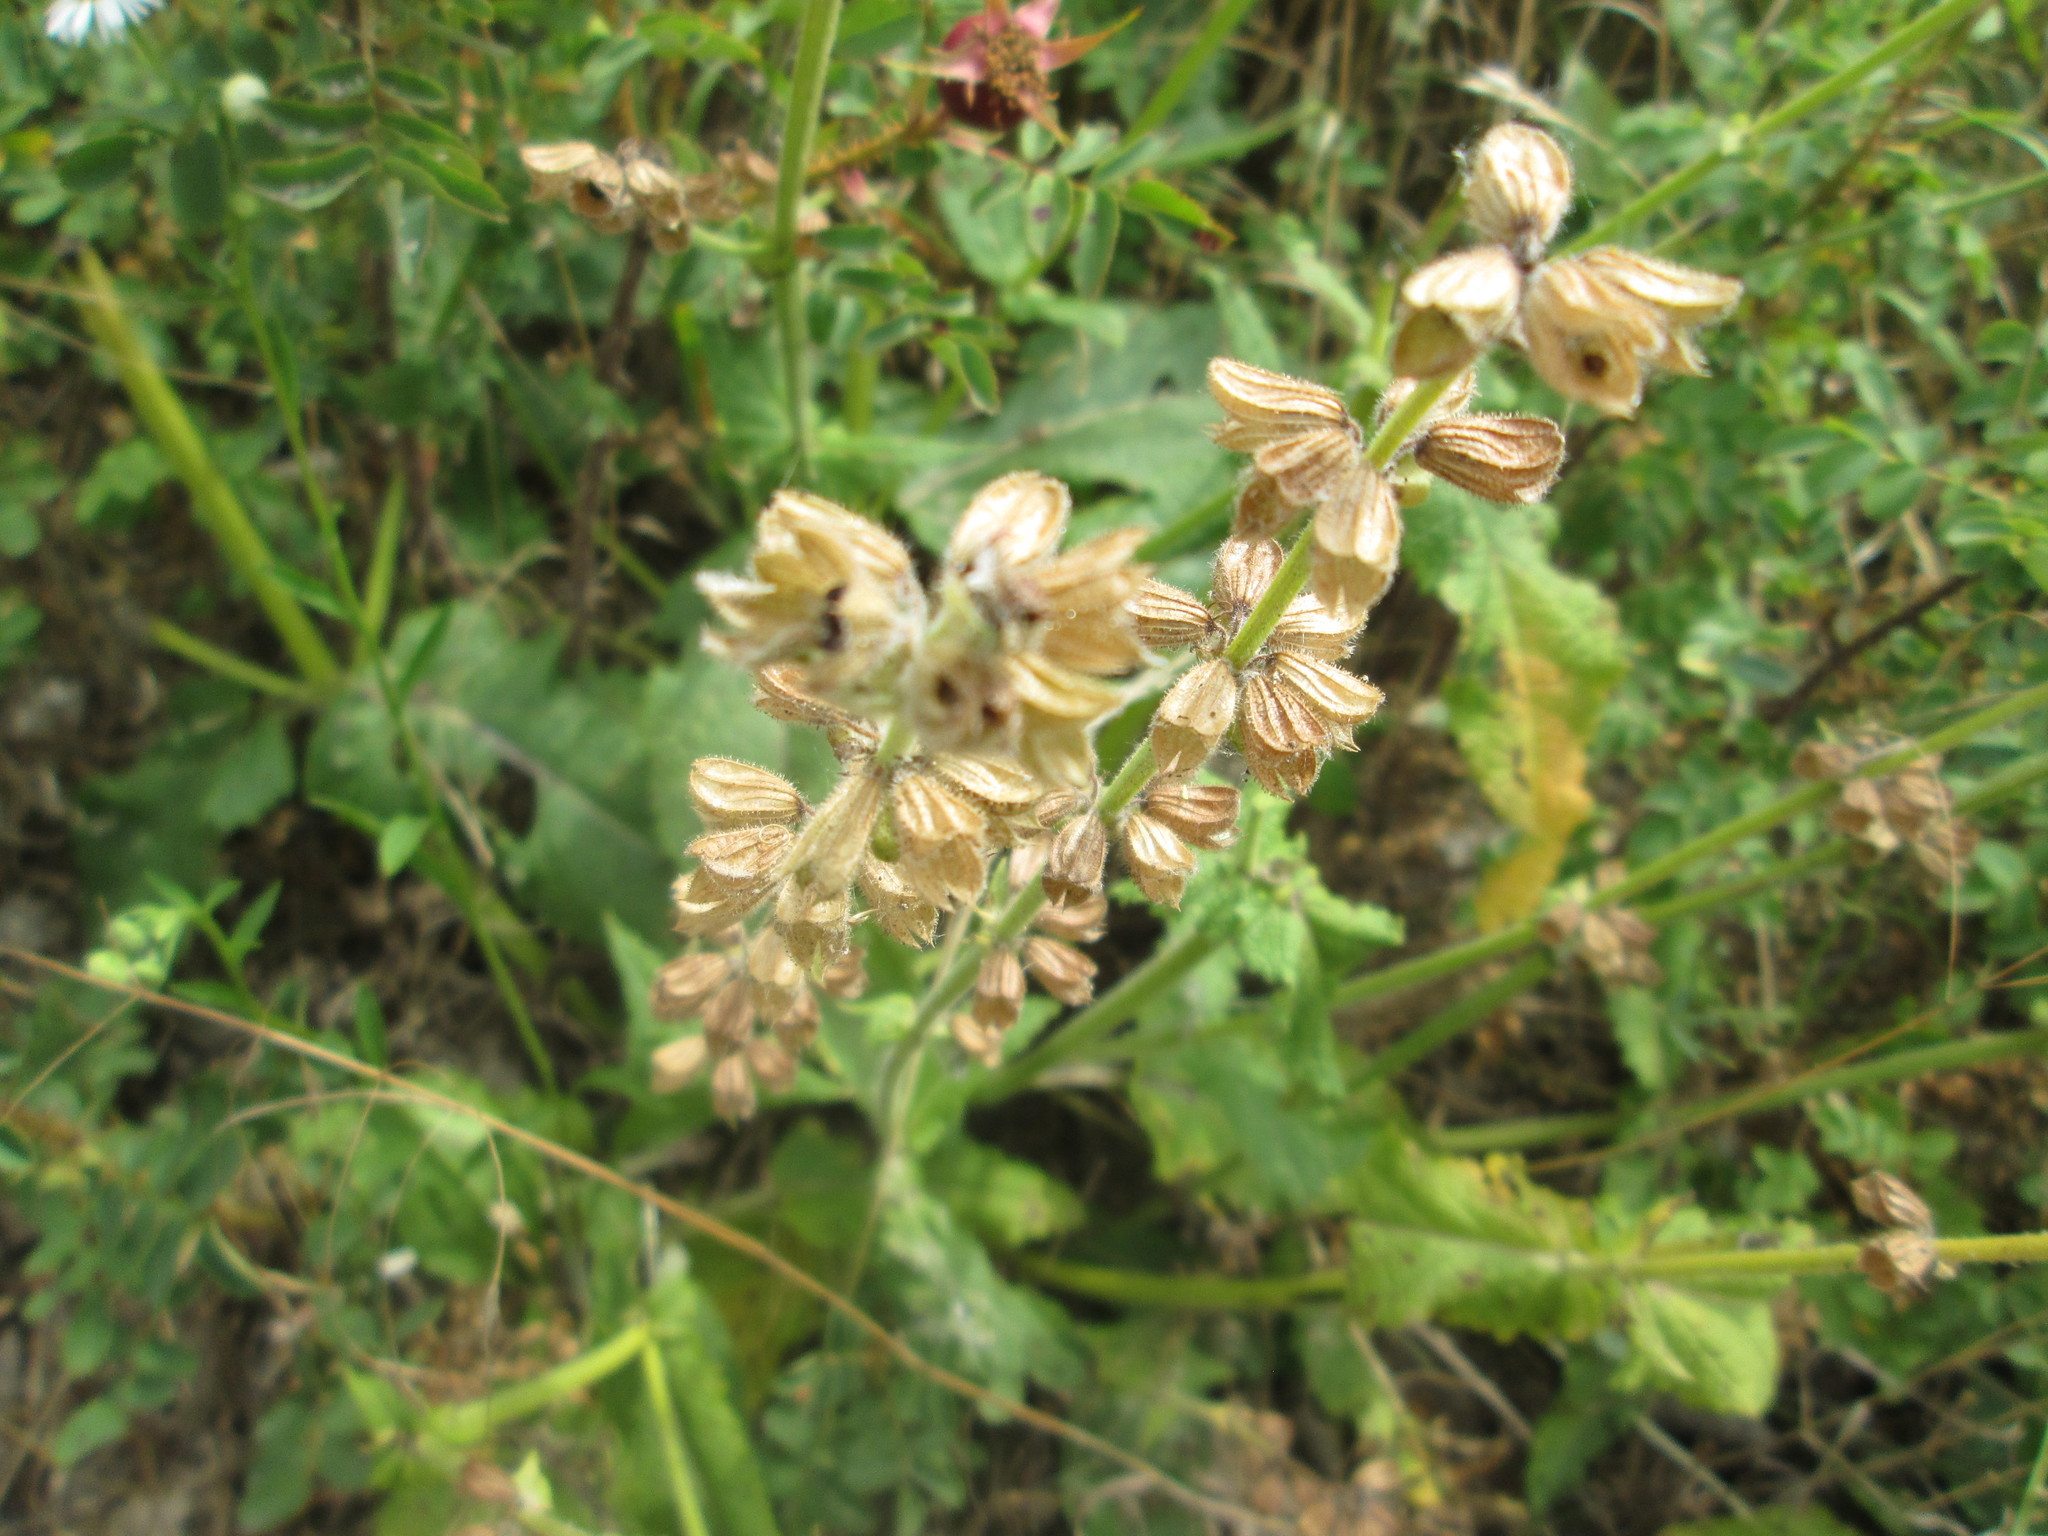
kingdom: Plantae
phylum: Tracheophyta
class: Magnoliopsida
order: Lamiales
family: Lamiaceae
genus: Salvia
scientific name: Salvia pratensis
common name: Meadow sage
